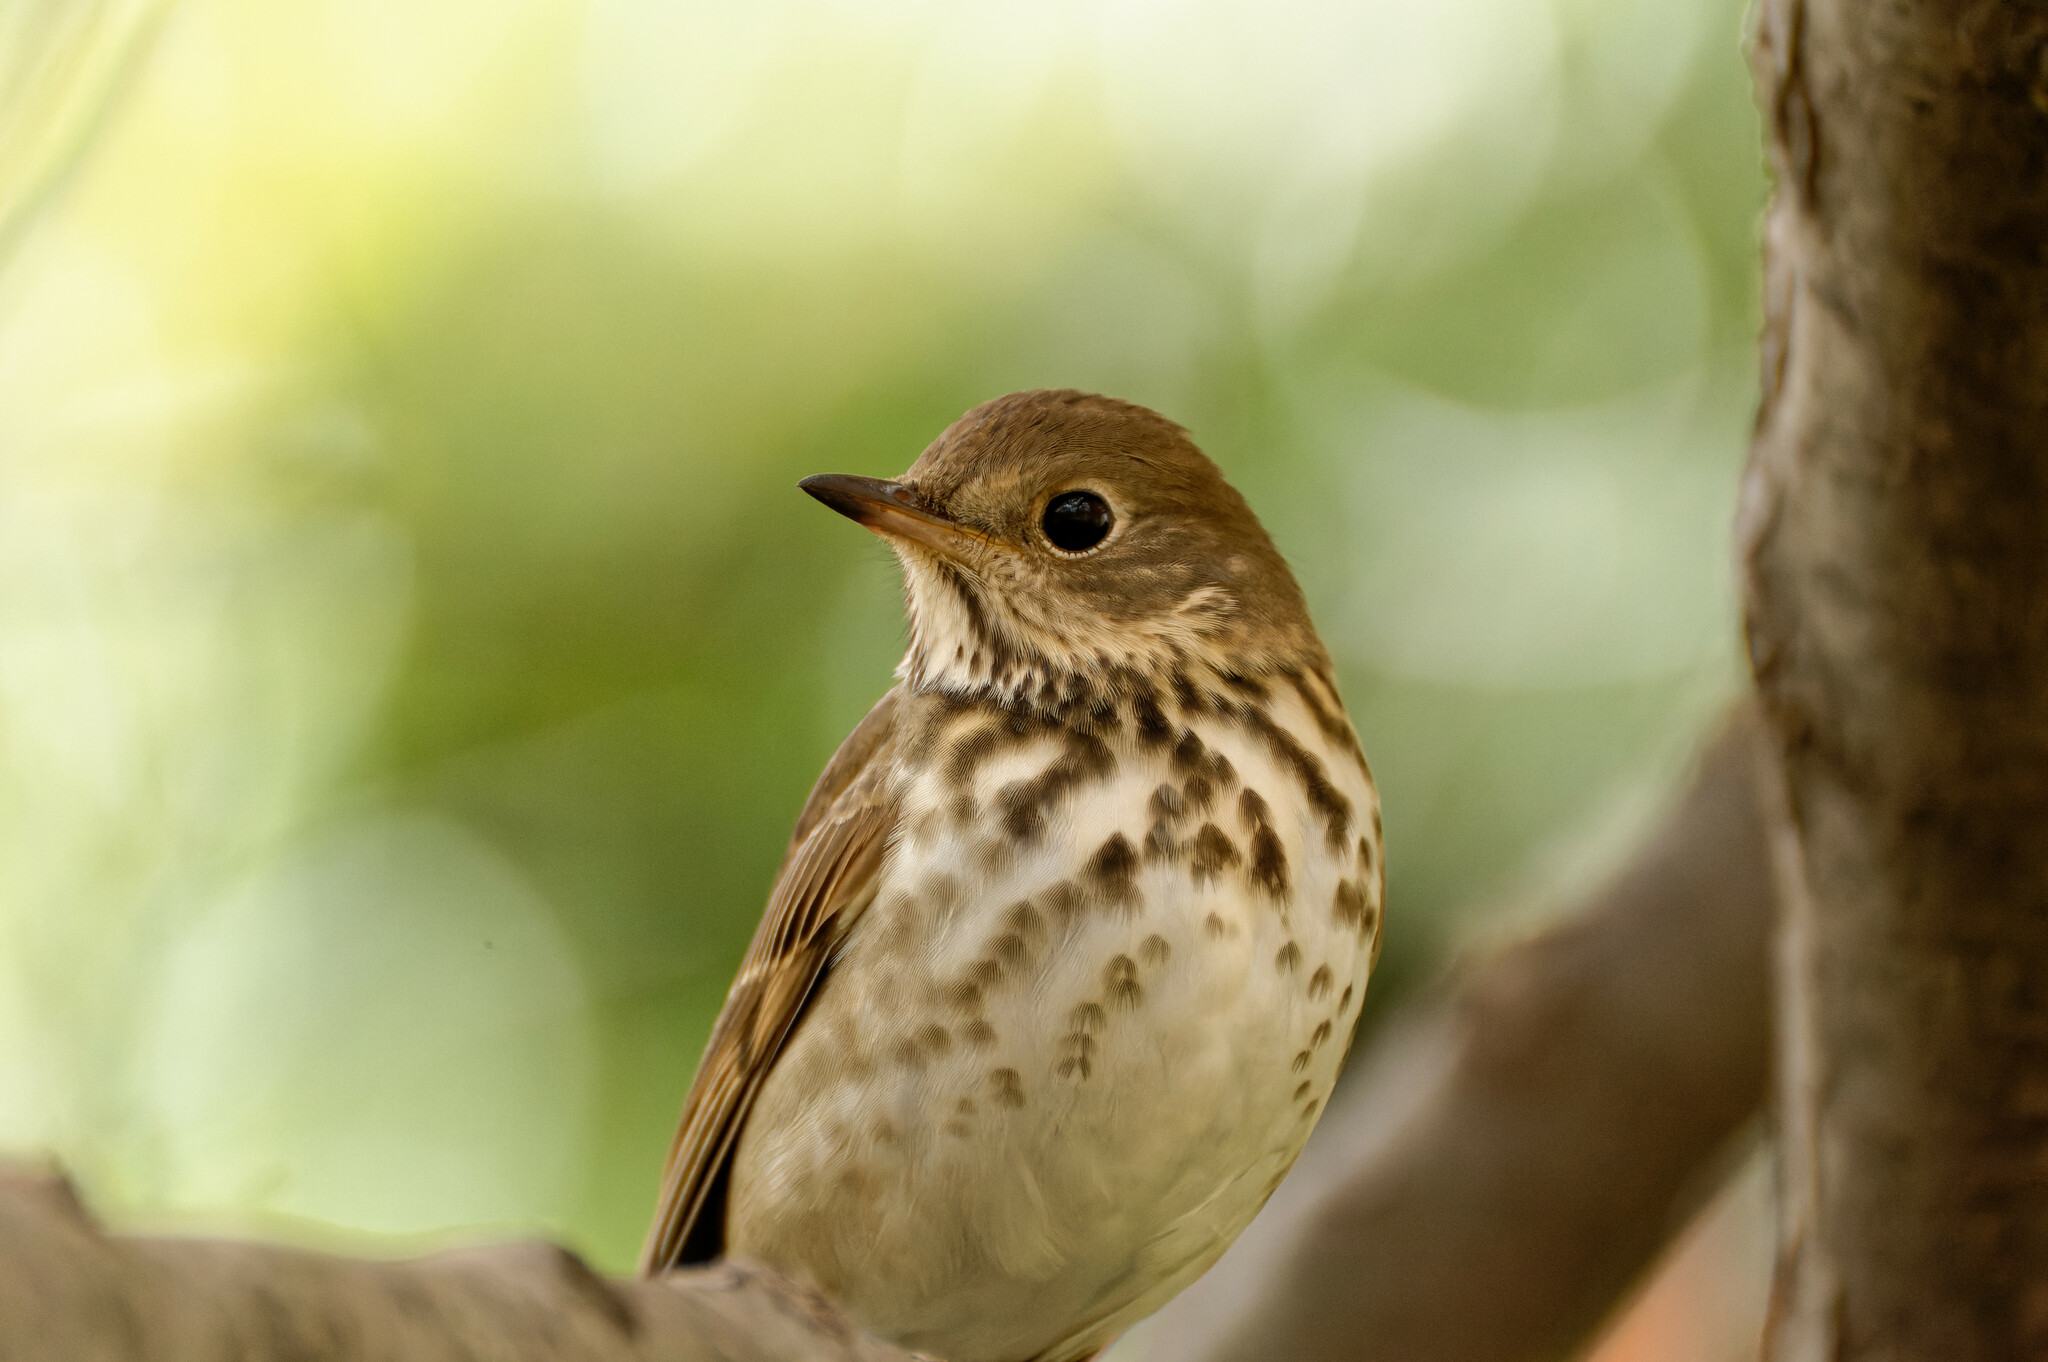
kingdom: Animalia
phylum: Chordata
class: Aves
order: Passeriformes
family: Turdidae
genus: Catharus
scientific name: Catharus guttatus
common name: Hermit thrush
